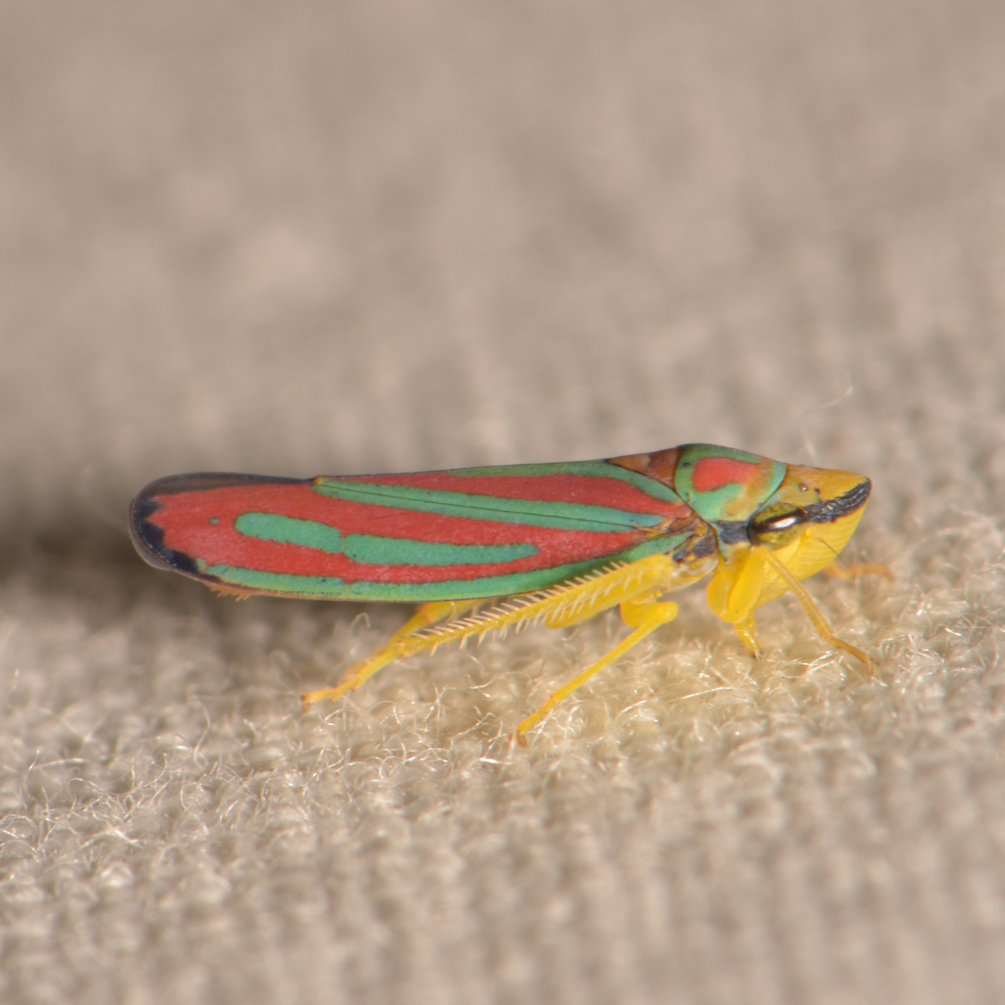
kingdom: Animalia
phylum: Arthropoda
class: Insecta
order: Hemiptera
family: Cicadellidae
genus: Graphocephala
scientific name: Graphocephala coccinea
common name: Candy-striped leafhopper
